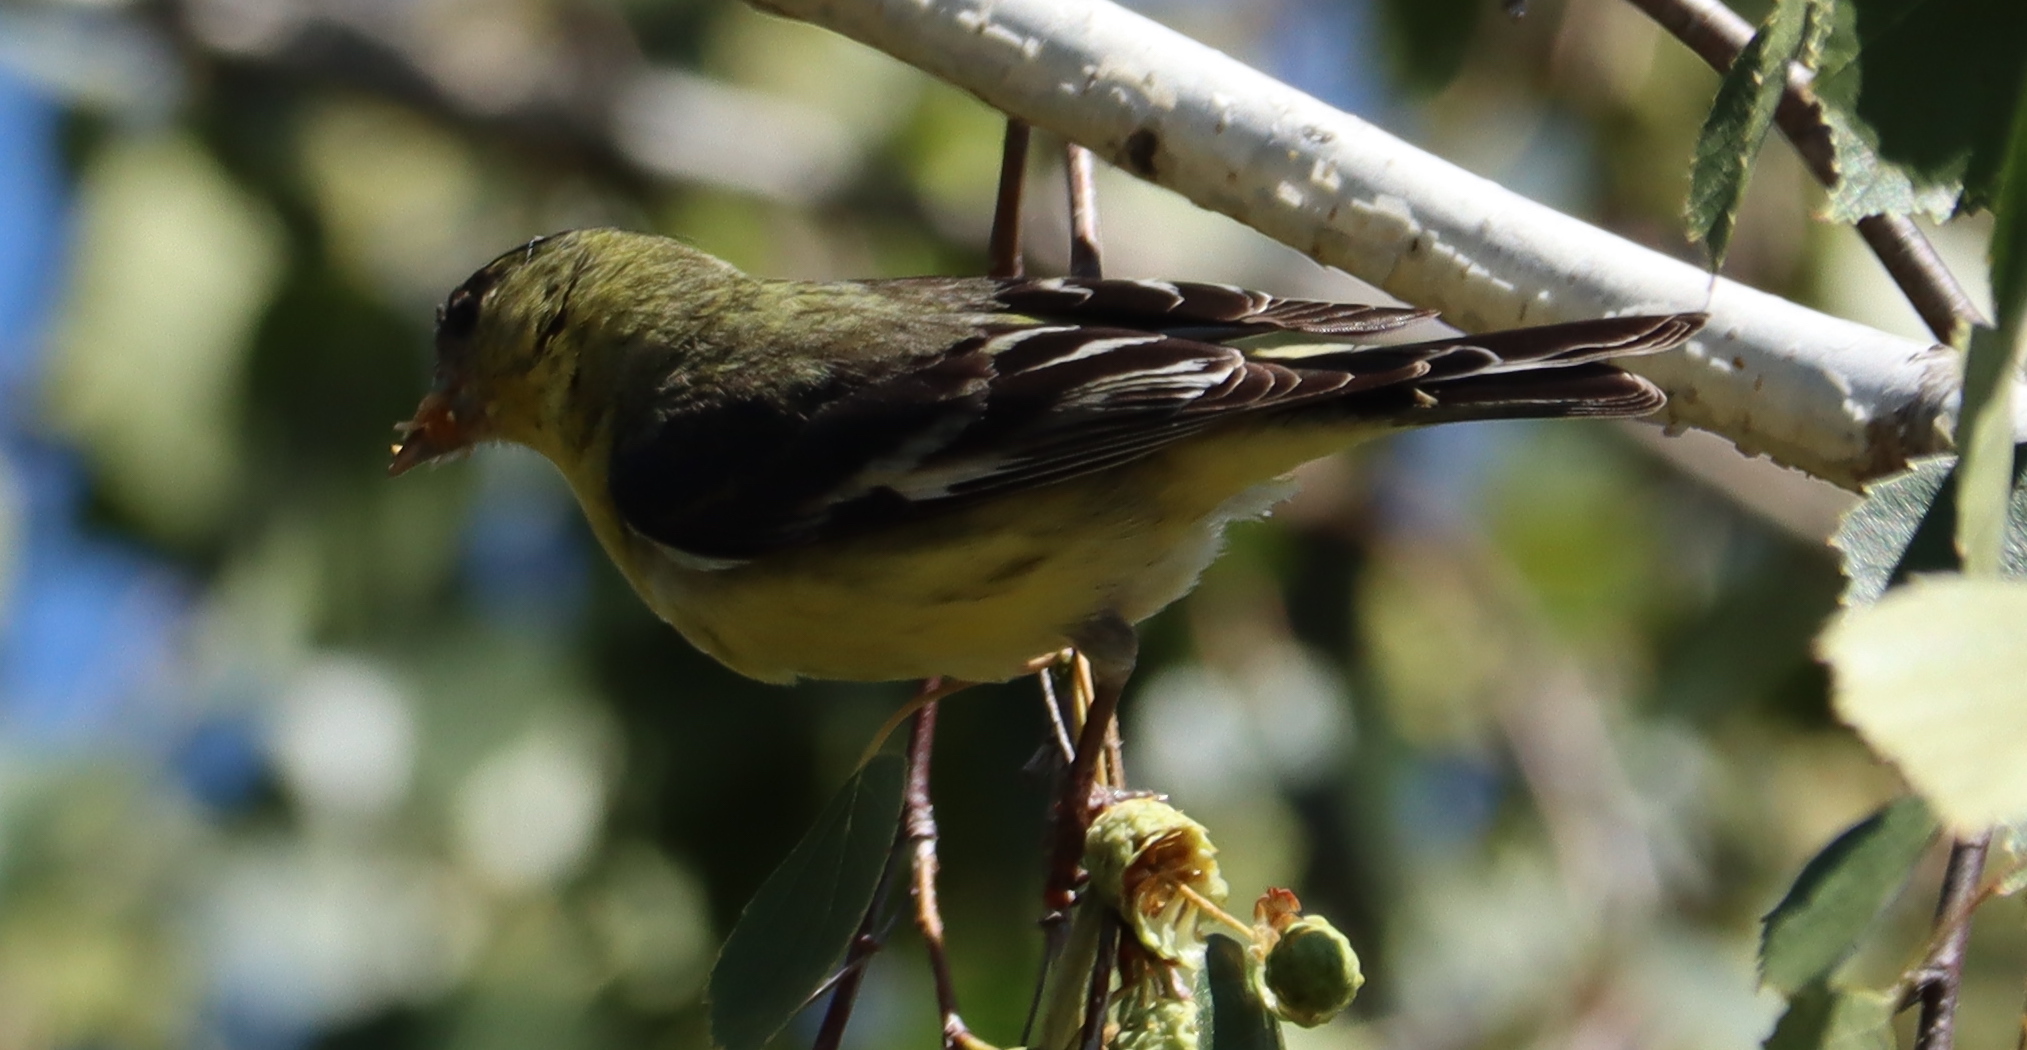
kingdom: Animalia
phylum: Chordata
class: Aves
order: Passeriformes
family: Fringillidae
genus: Spinus
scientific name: Spinus psaltria
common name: Lesser goldfinch
